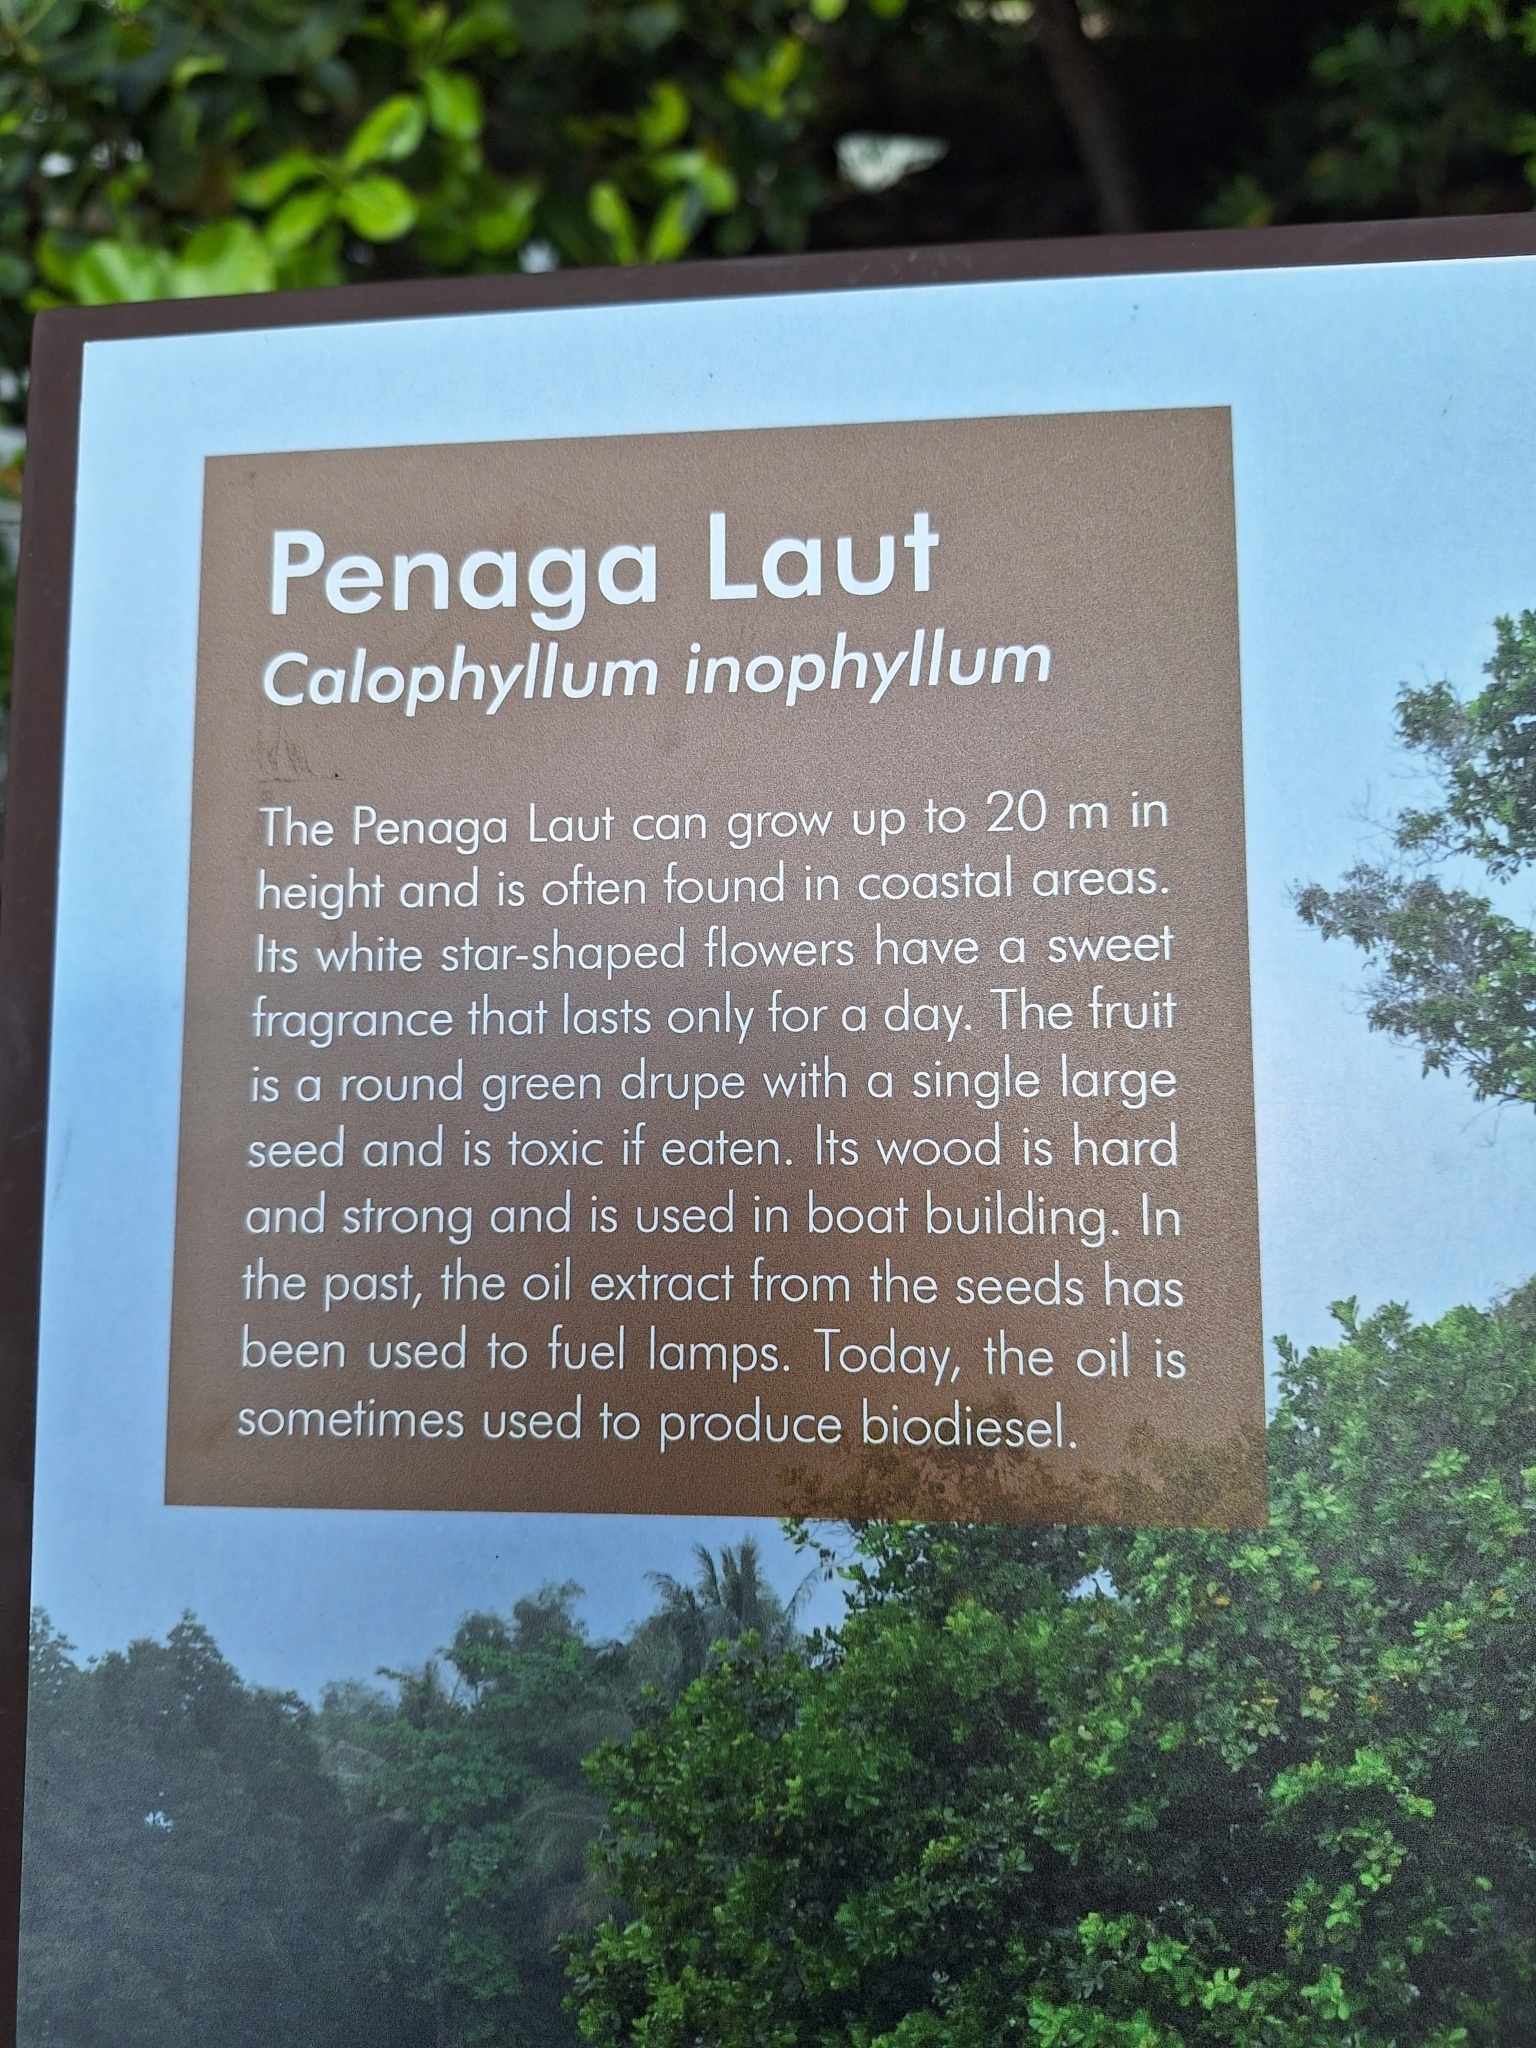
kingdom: Plantae
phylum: Tracheophyta
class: Magnoliopsida
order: Malpighiales
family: Calophyllaceae
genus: Calophyllum
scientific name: Calophyllum inophyllum
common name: Alexandrian laurel
